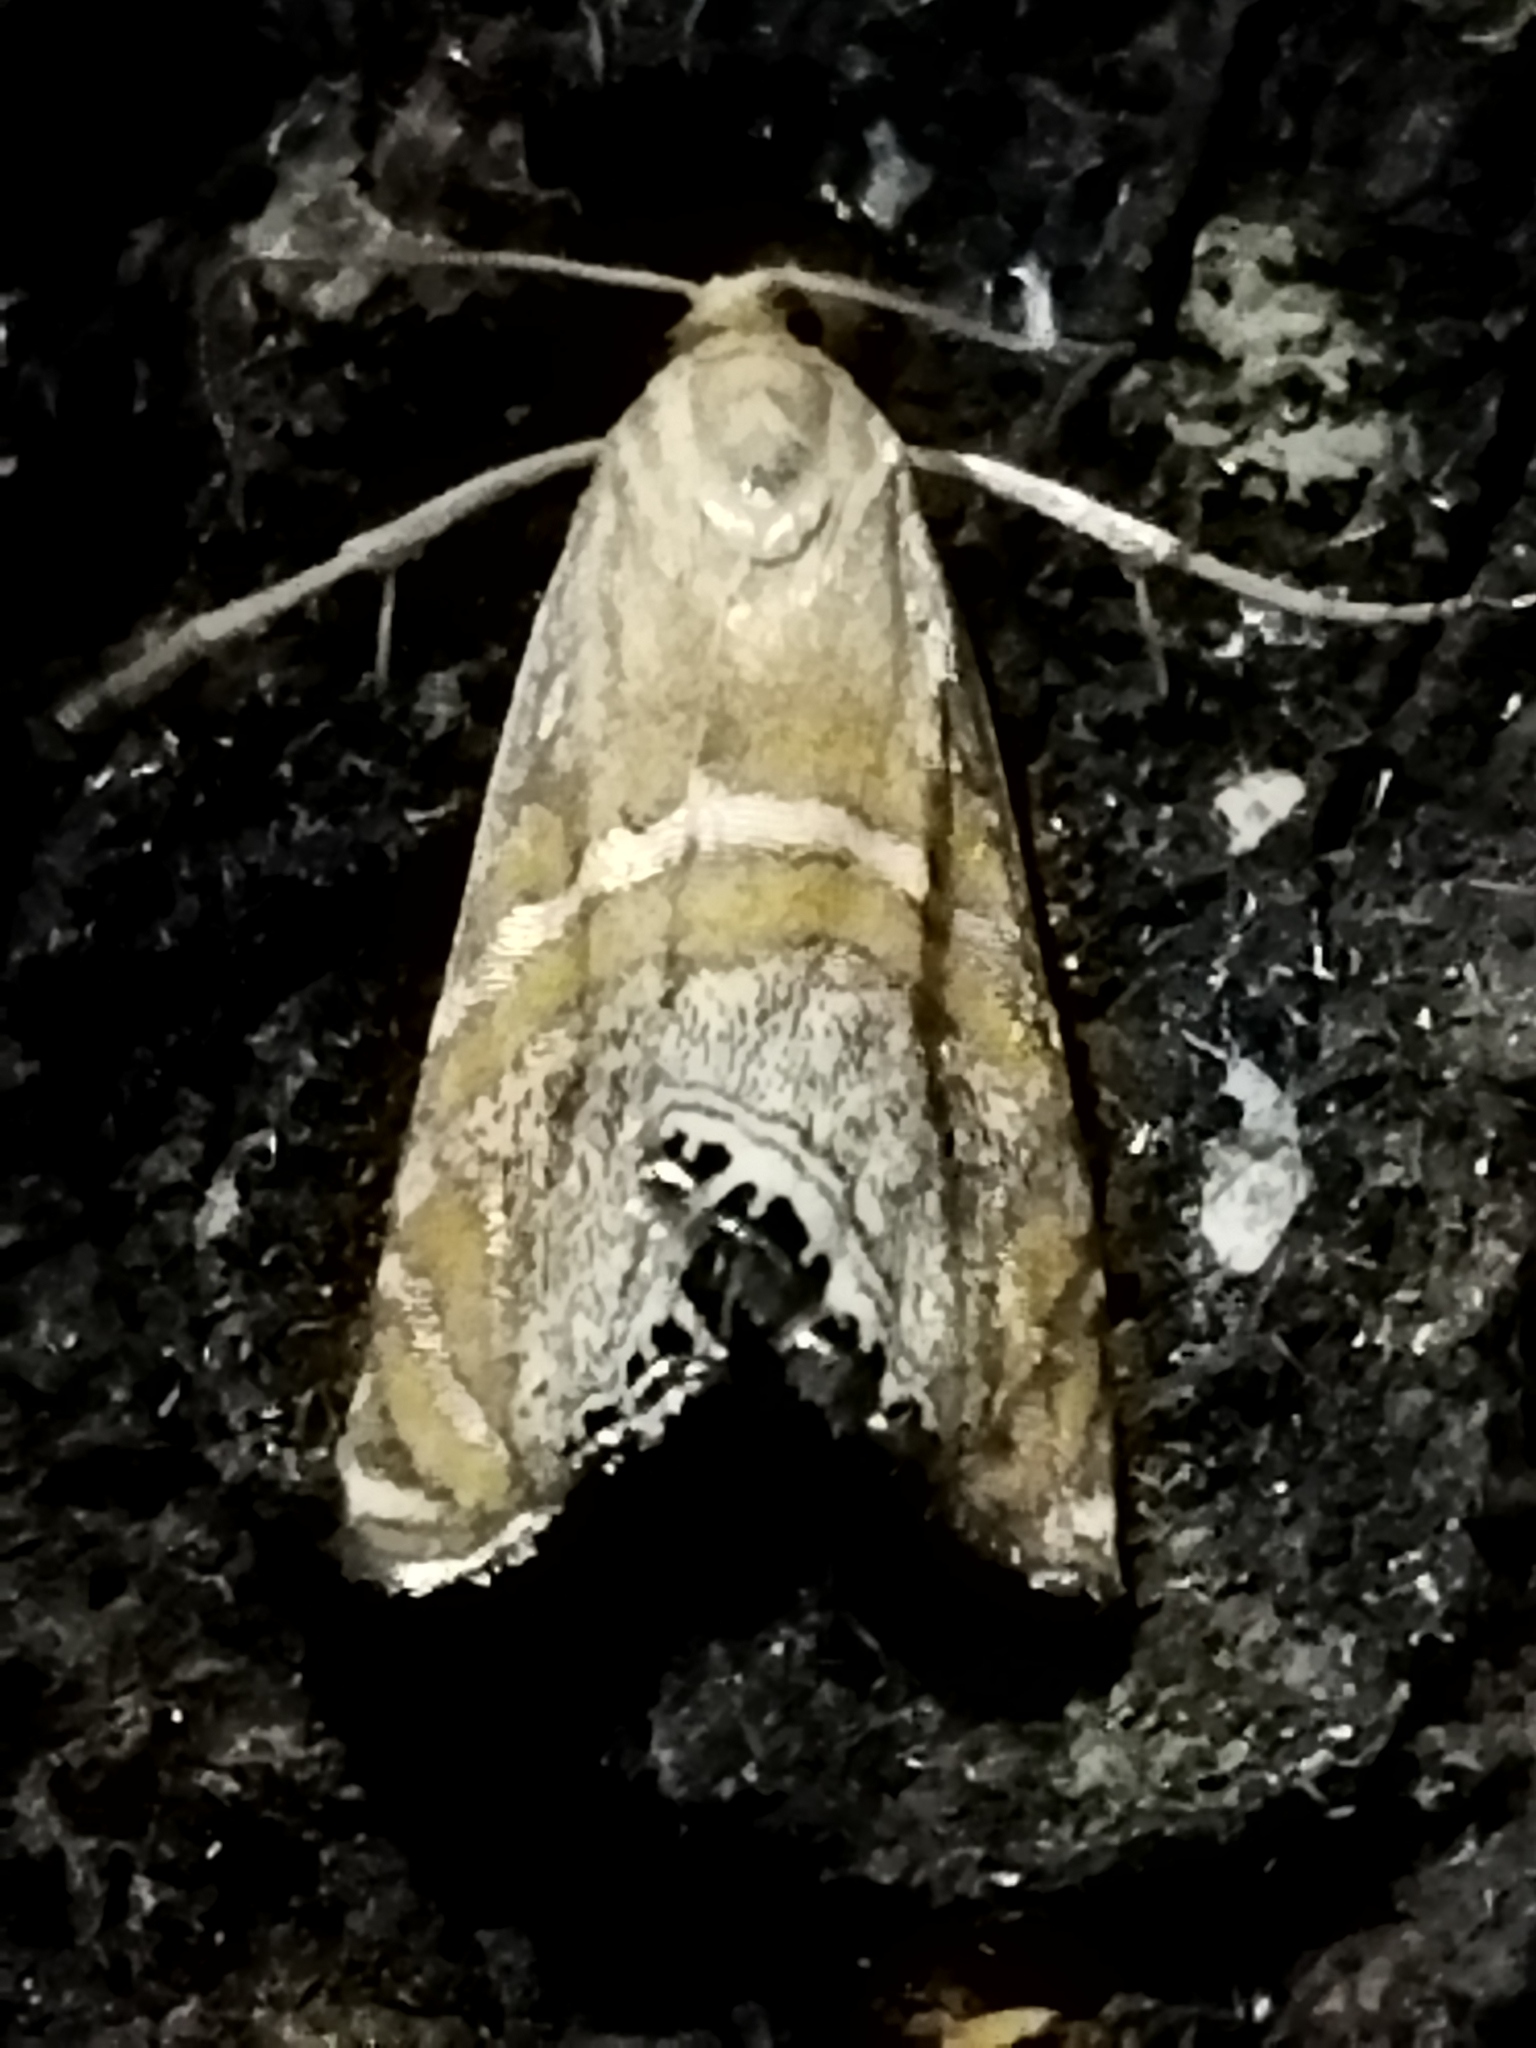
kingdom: Animalia
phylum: Arthropoda
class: Insecta
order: Lepidoptera
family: Crambidae
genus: Euchromius
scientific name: Euchromius bella
